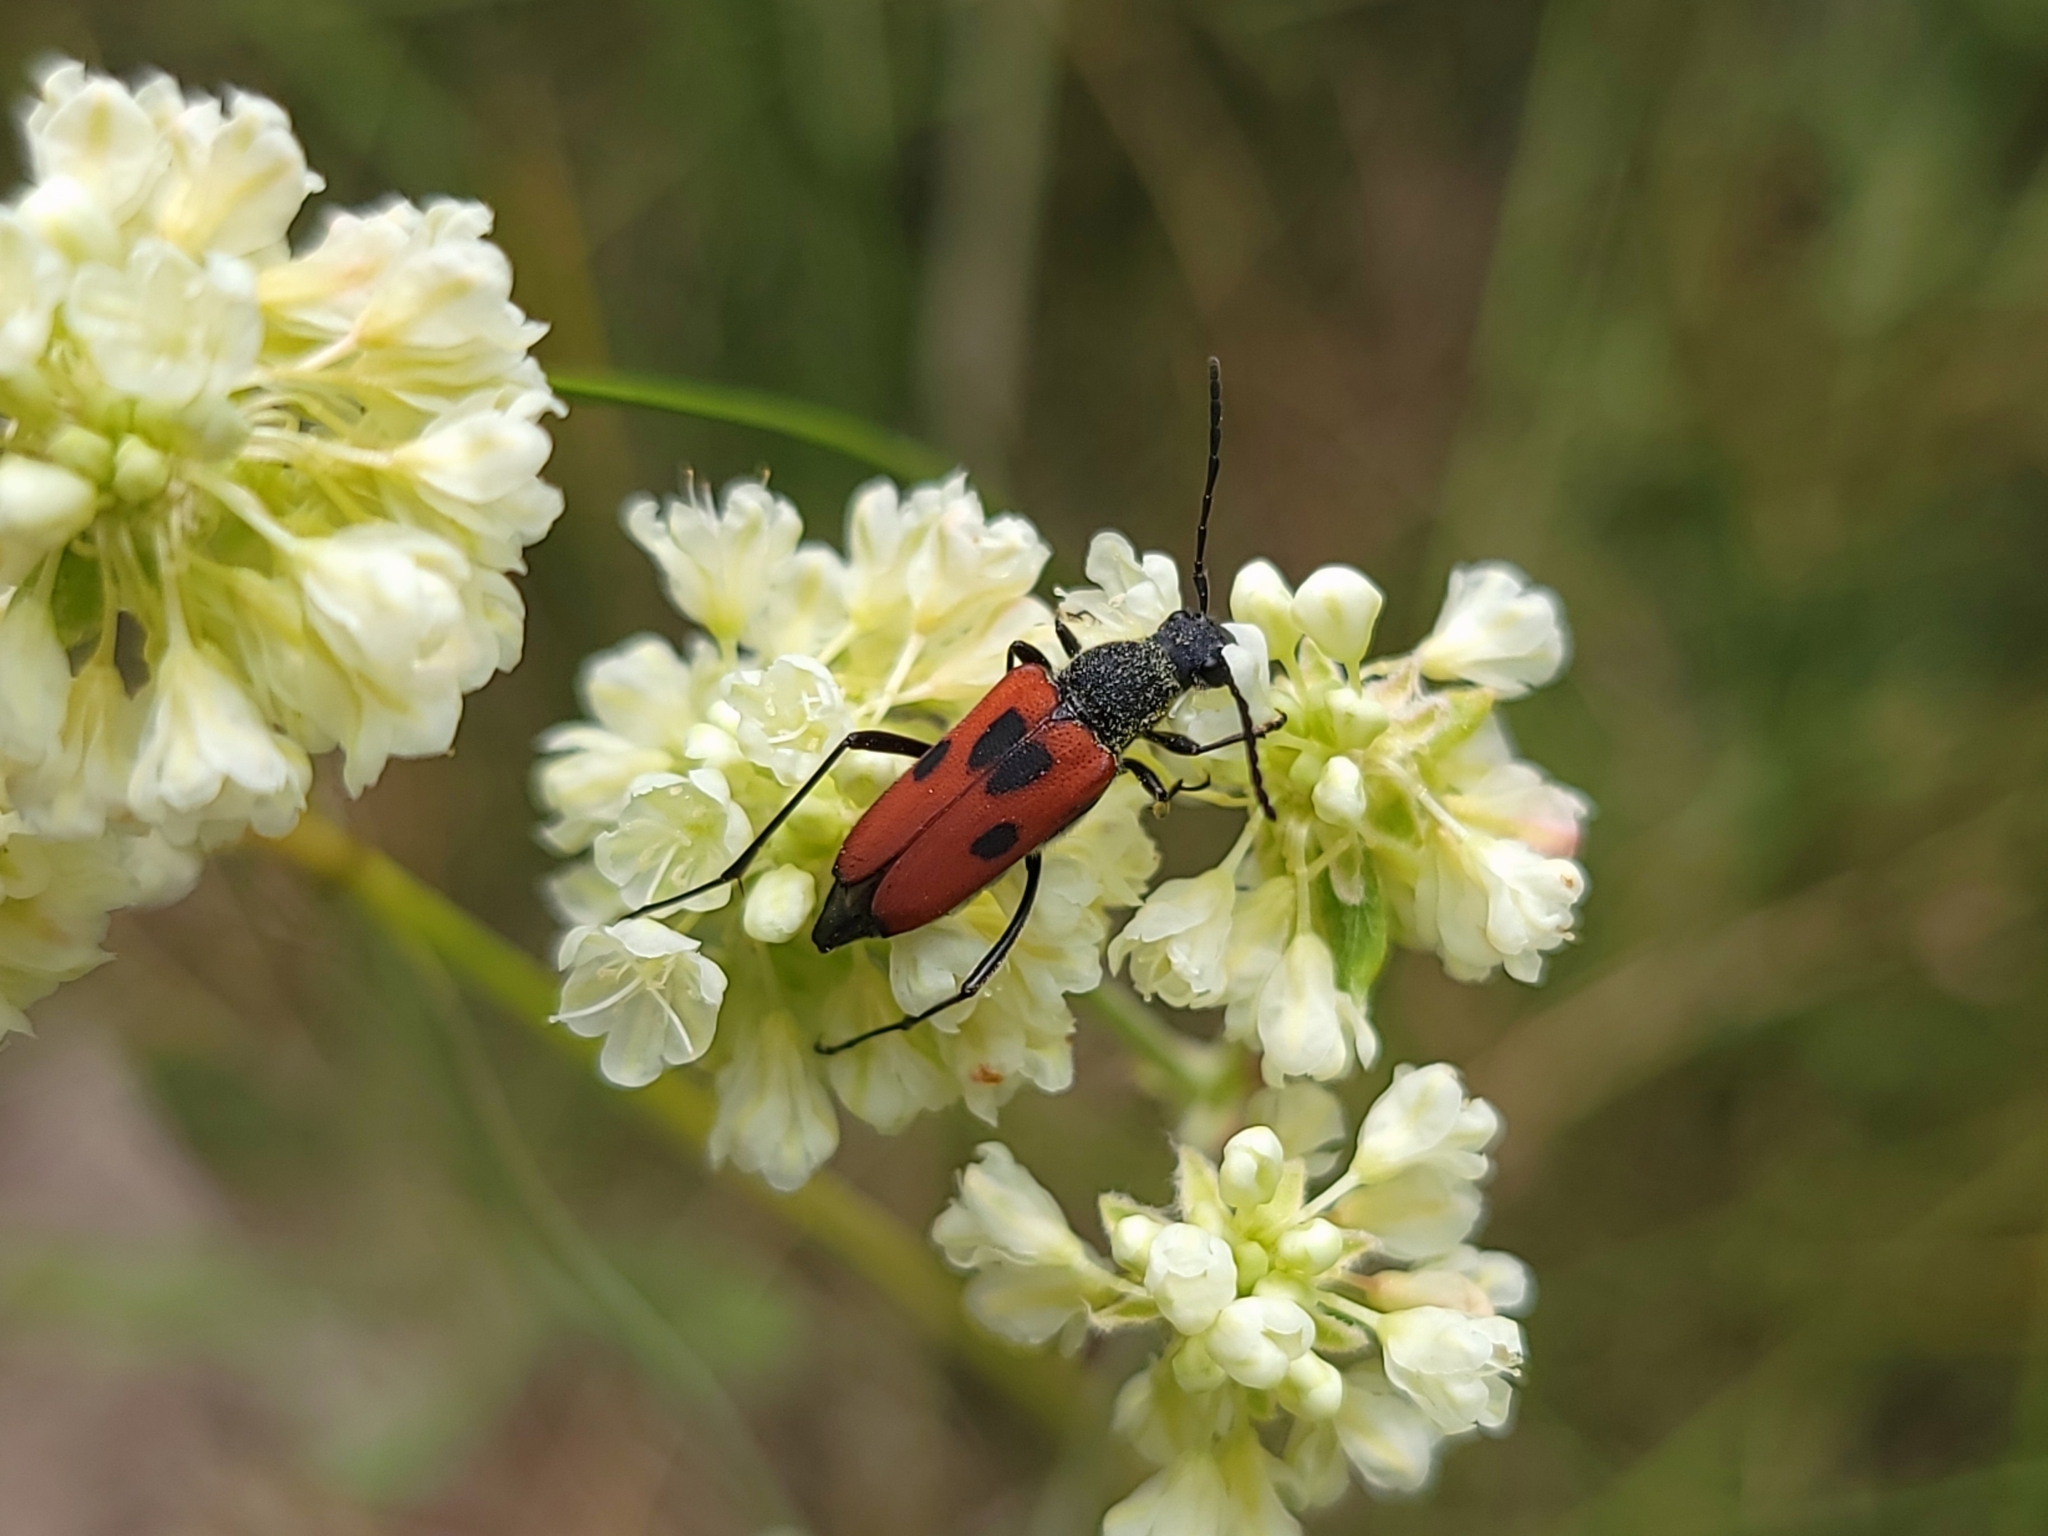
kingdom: Animalia
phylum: Arthropoda
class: Insecta
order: Coleoptera
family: Cerambycidae
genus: Anastrangalia
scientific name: Anastrangalia laetifica
